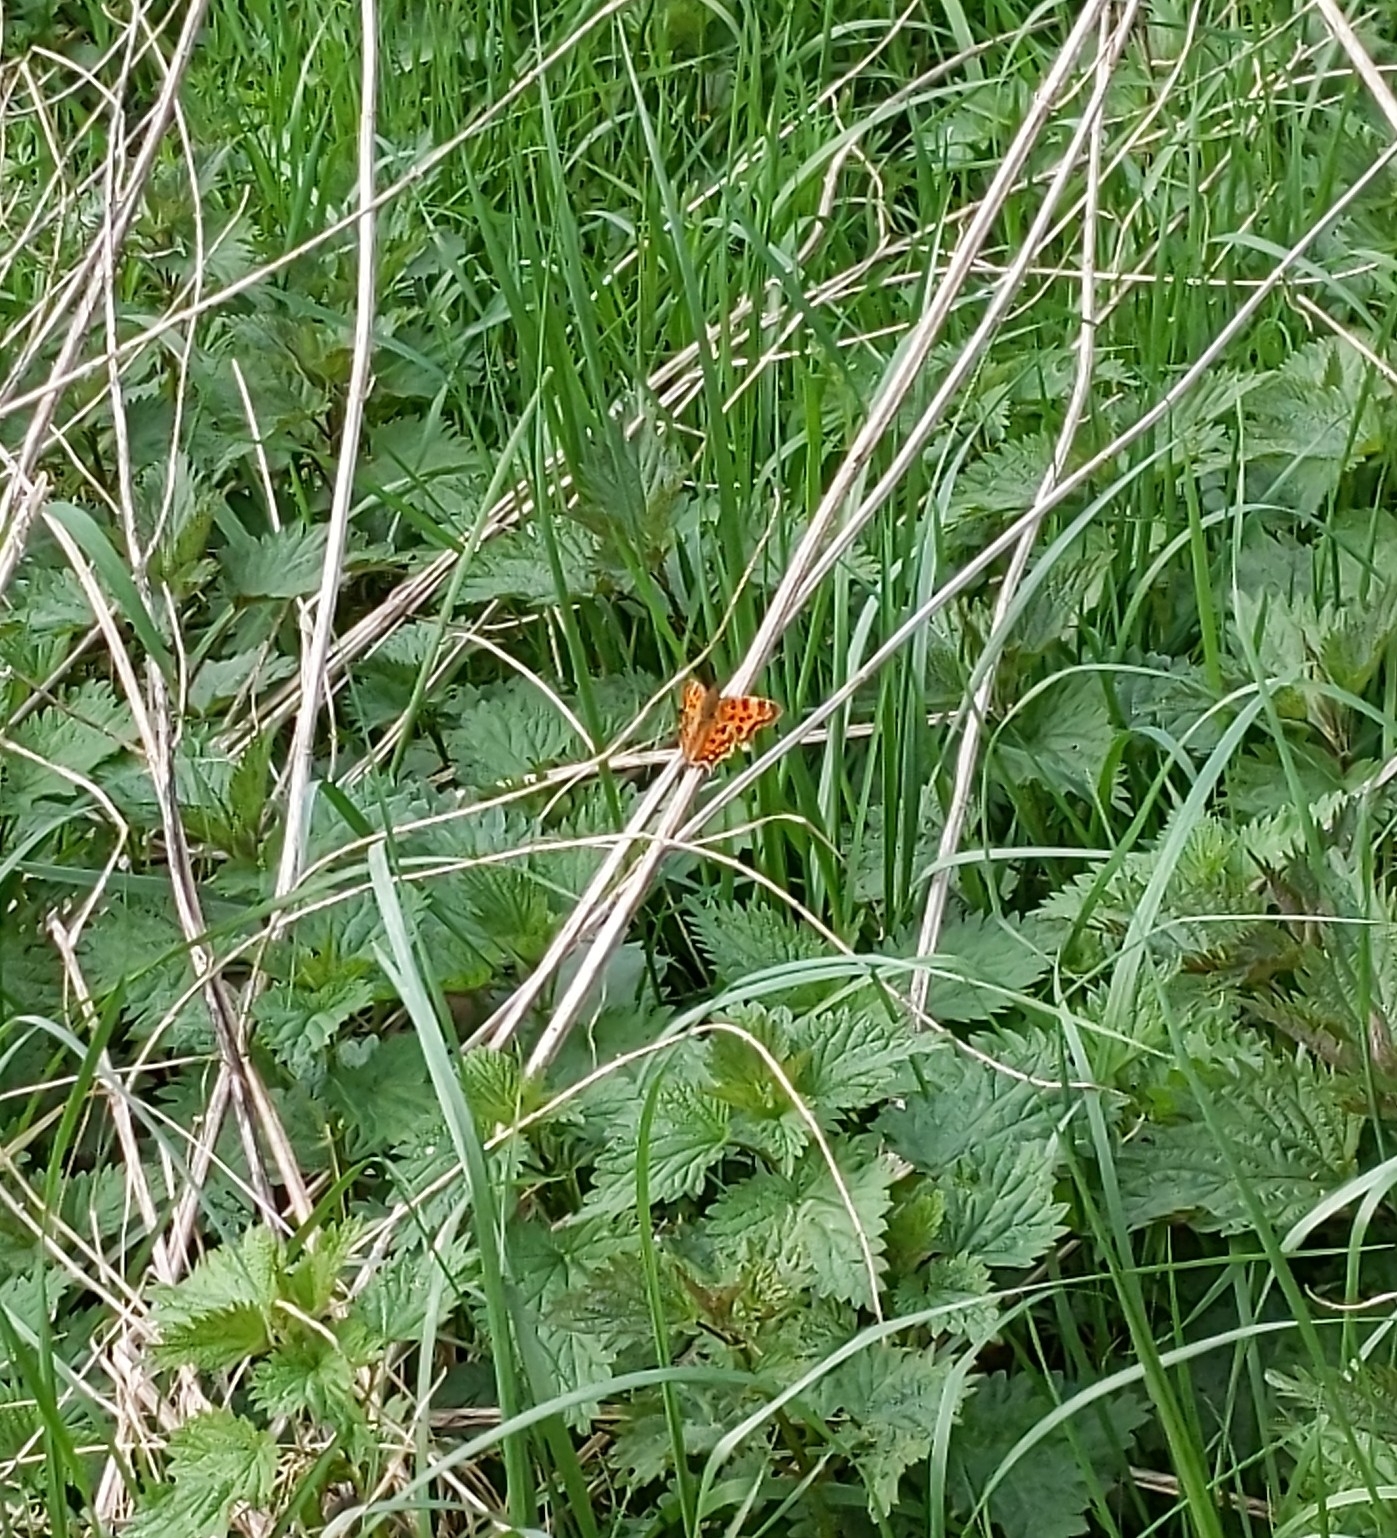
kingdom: Animalia
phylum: Arthropoda
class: Insecta
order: Lepidoptera
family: Nymphalidae
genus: Polygonia
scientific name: Polygonia c-album
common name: Comma
